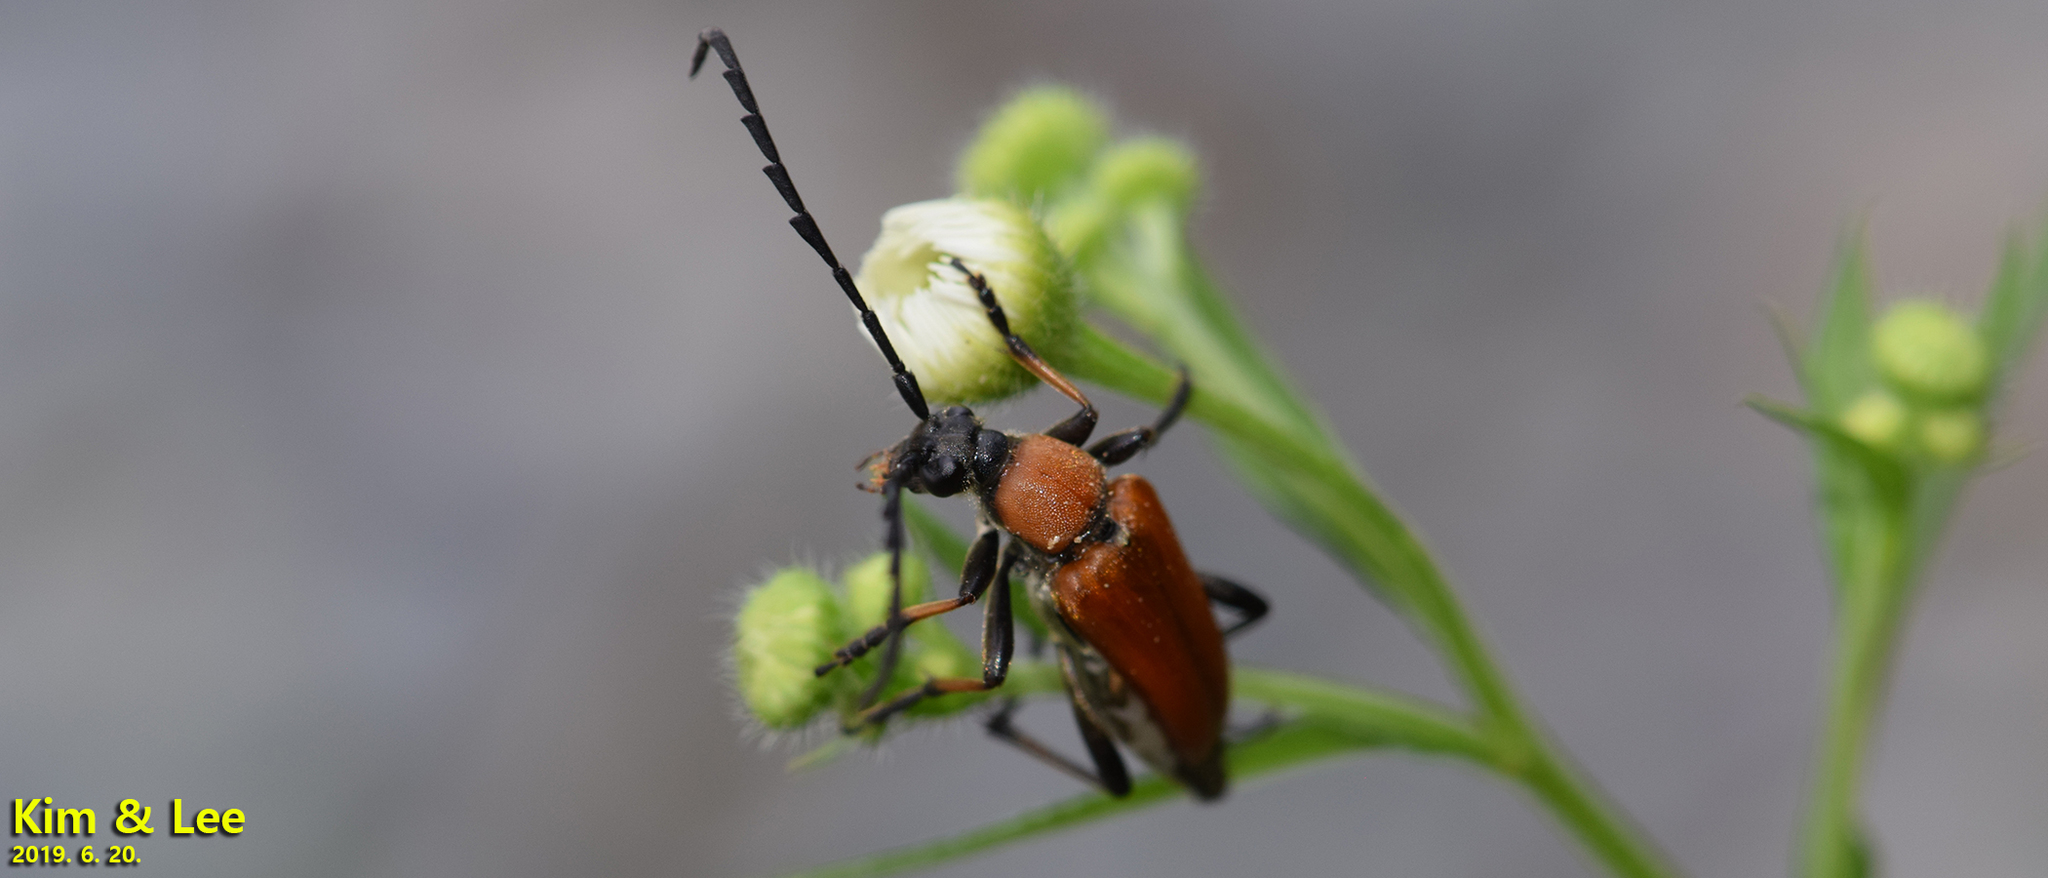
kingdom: Animalia
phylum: Arthropoda
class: Insecta
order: Coleoptera
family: Cerambycidae
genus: Stictoleptura
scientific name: Stictoleptura dichroa
